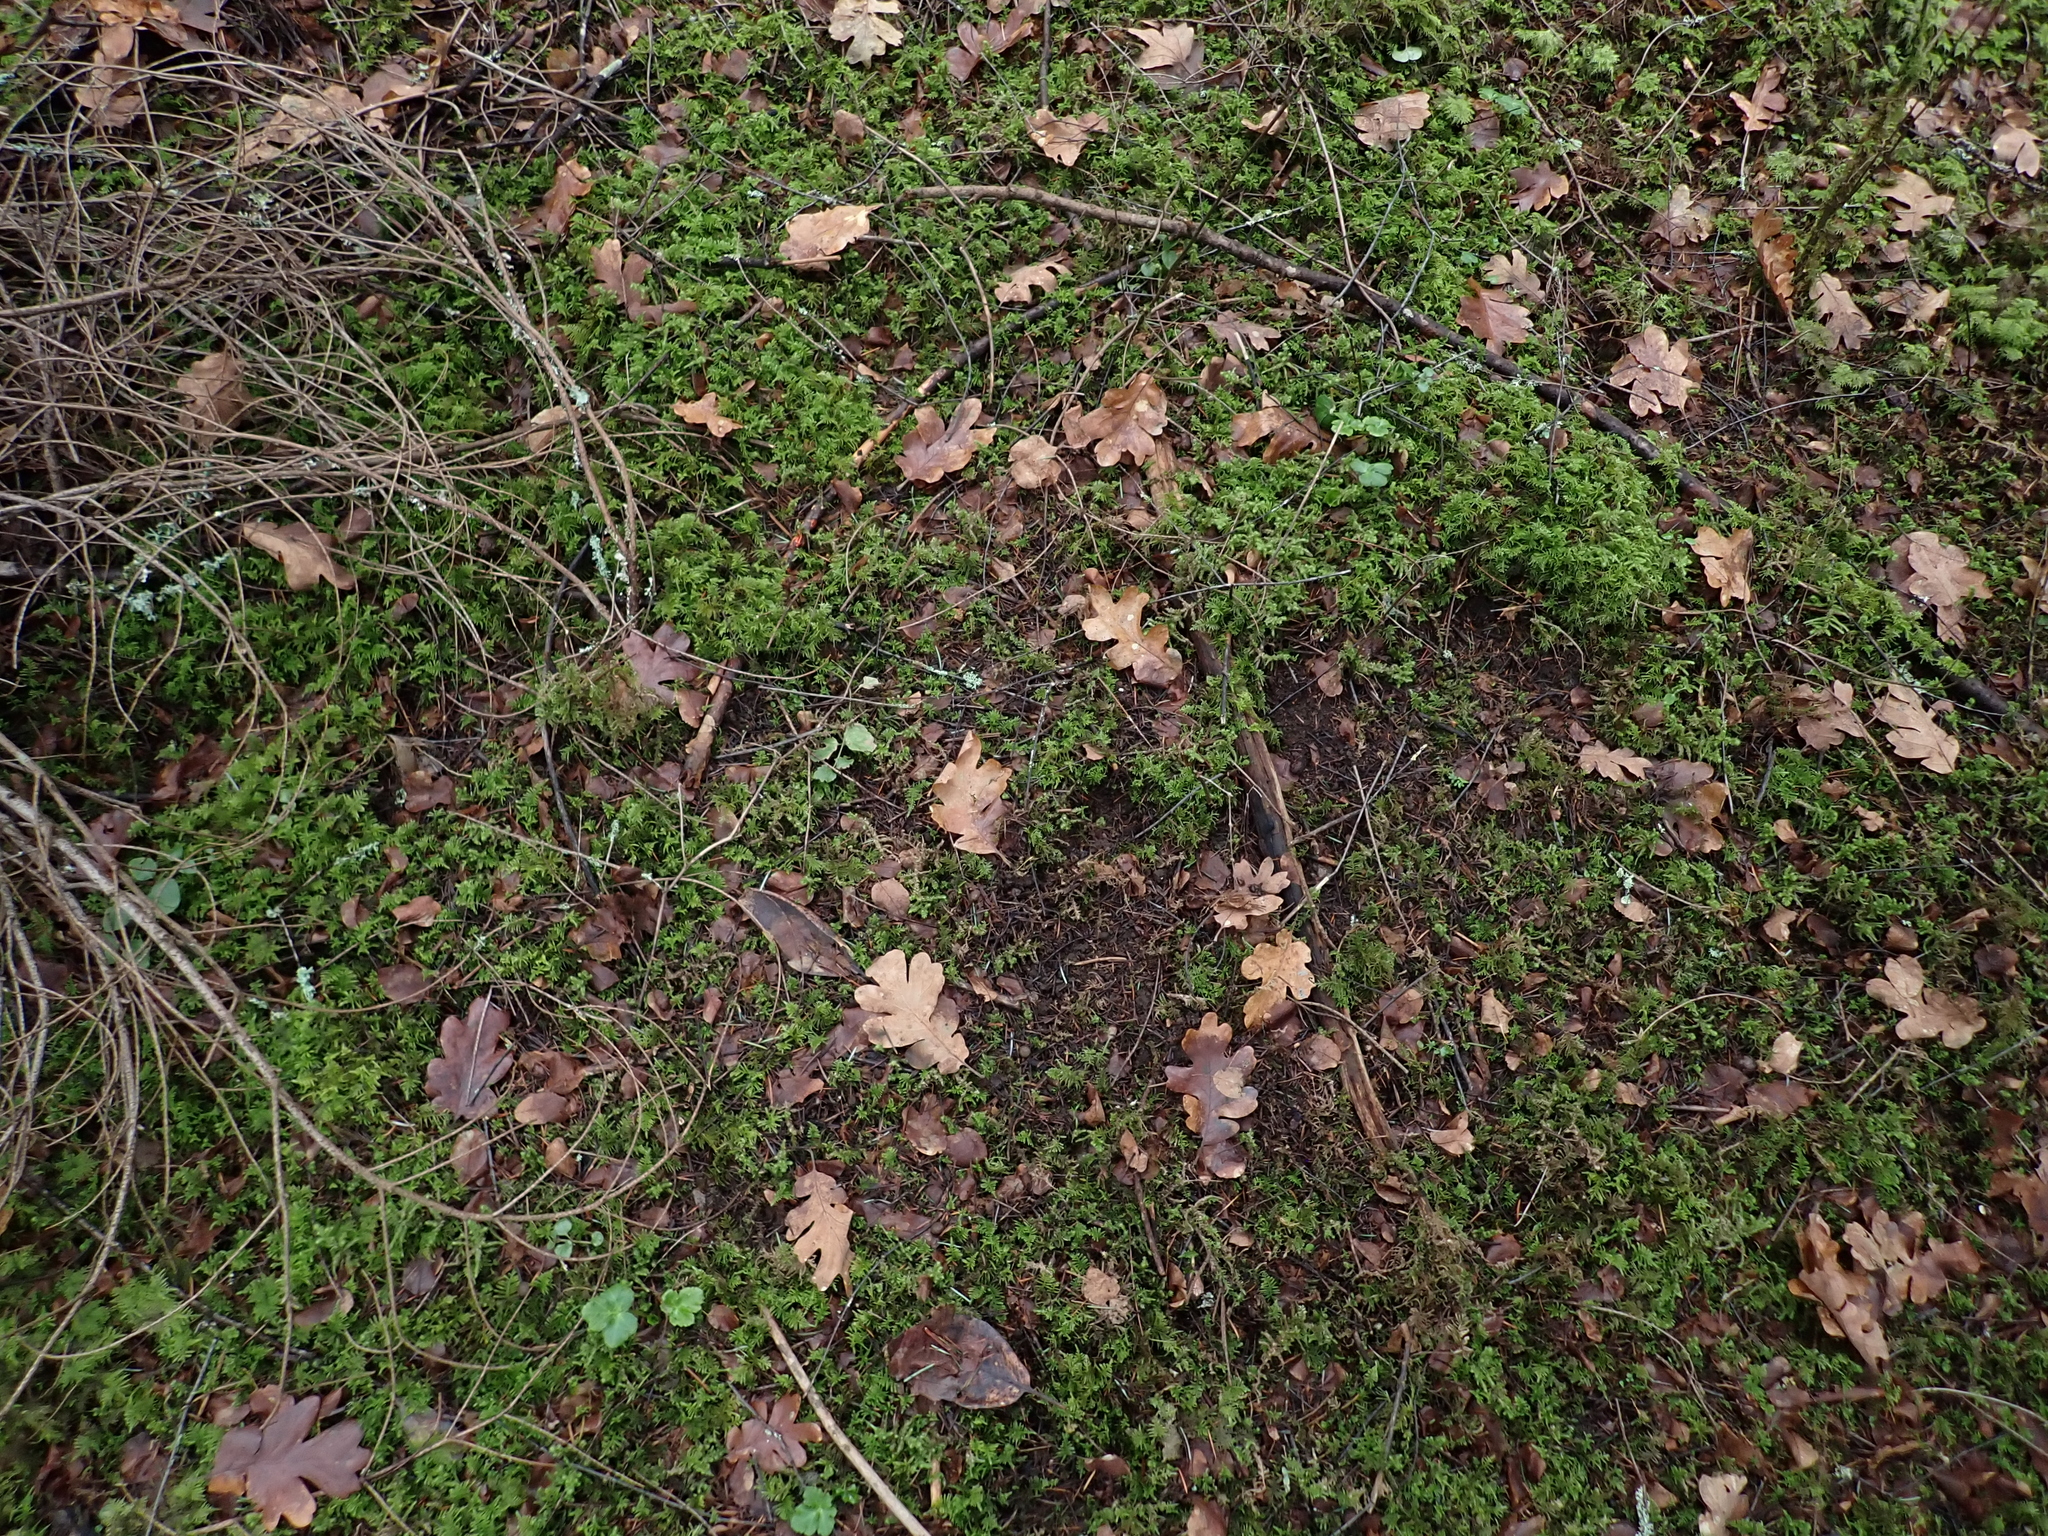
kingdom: Plantae
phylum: Tracheophyta
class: Magnoliopsida
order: Fagales
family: Fagaceae
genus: Quercus
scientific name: Quercus garryana
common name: Garry oak
